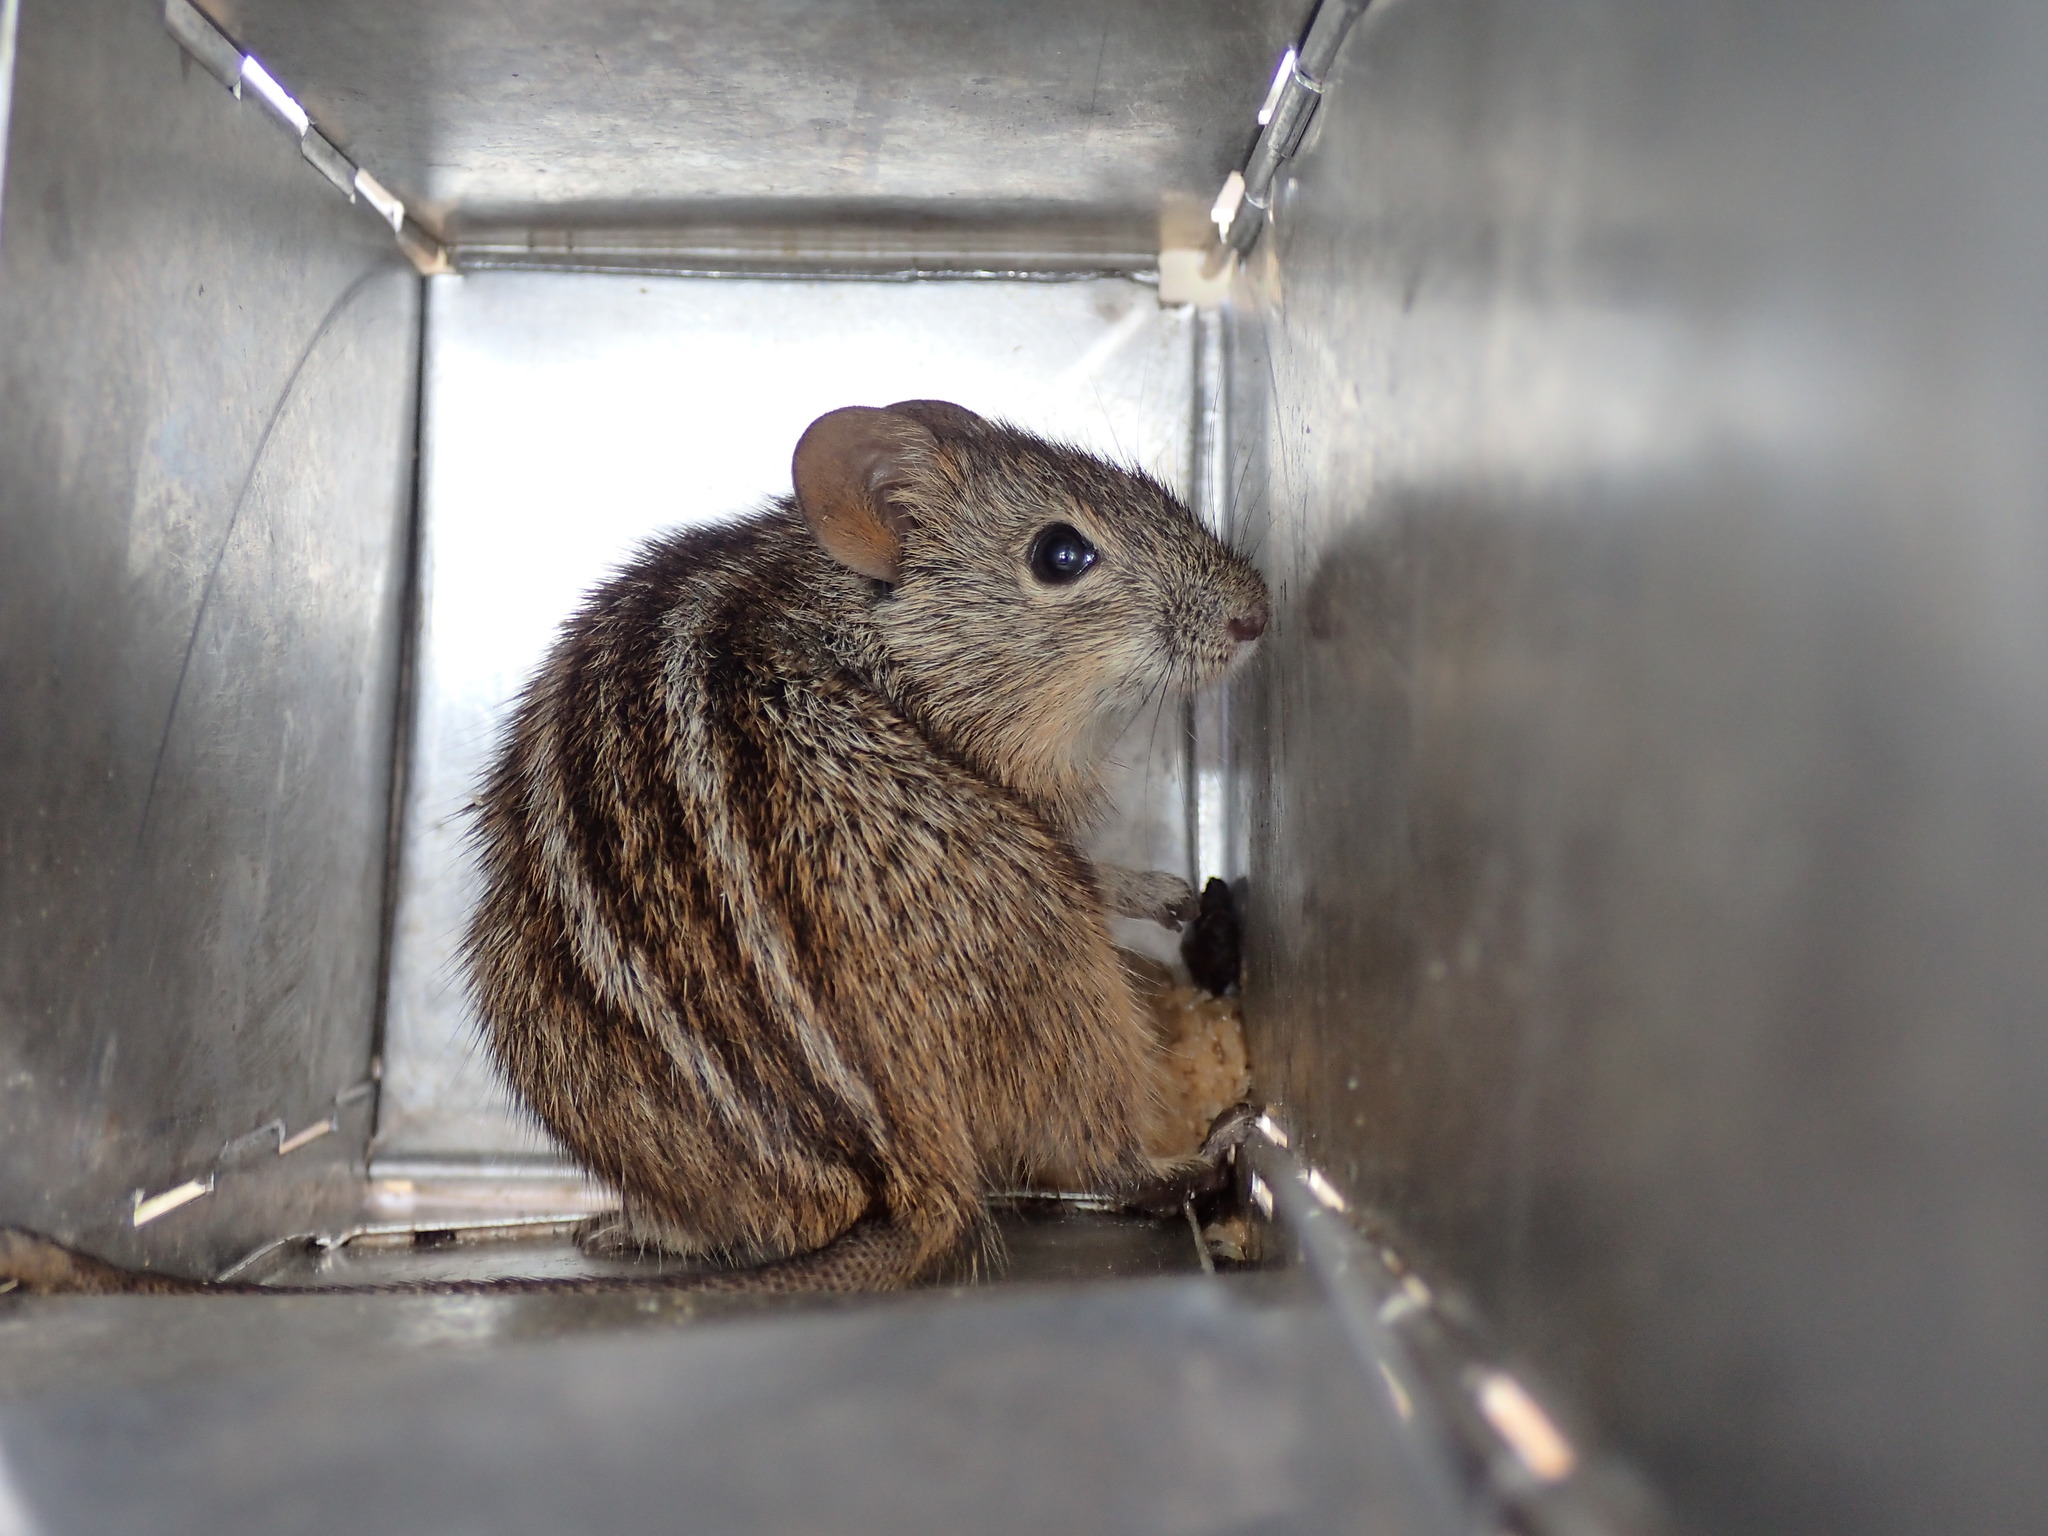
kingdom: Animalia
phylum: Chordata
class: Mammalia
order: Rodentia
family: Muridae
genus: Rhabdomys
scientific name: Rhabdomys pumilio
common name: Xeric four-striped grass rat
